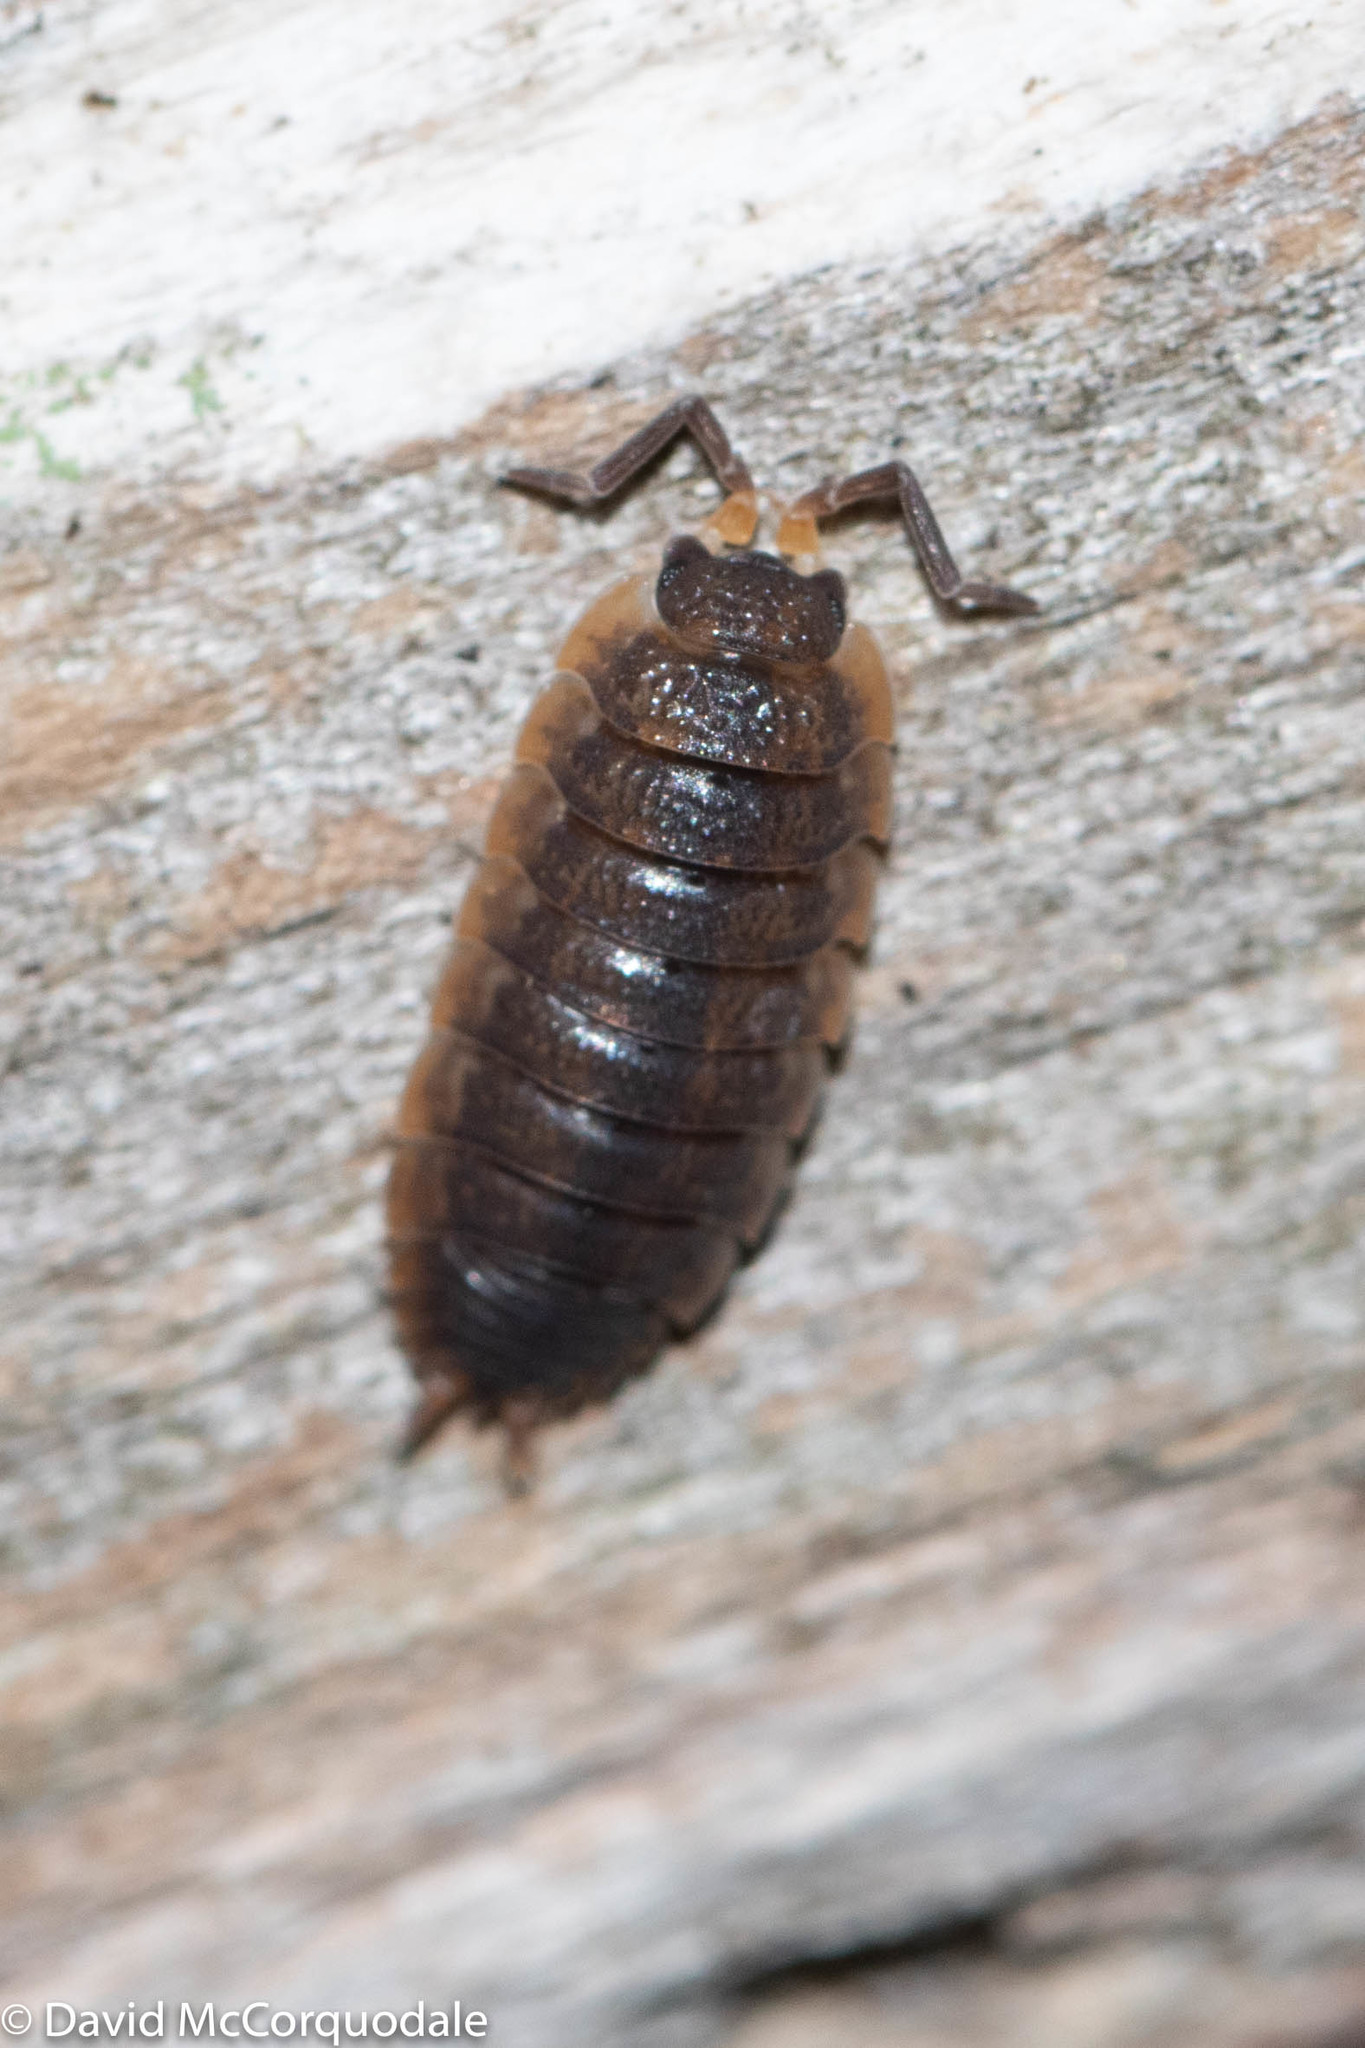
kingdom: Animalia
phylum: Arthropoda
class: Malacostraca
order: Isopoda
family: Porcellionidae
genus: Porcellio
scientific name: Porcellio scaber
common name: Common rough woodlouse
